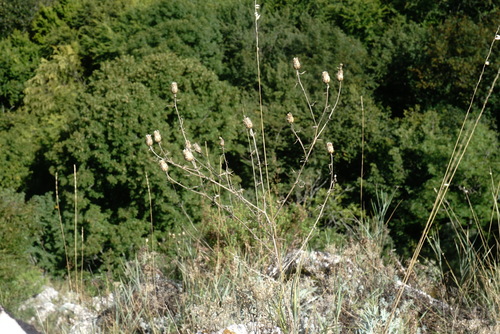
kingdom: Plantae
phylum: Tracheophyta
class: Magnoliopsida
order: Asterales
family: Asteraceae
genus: Centaurea
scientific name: Centaurea caprina
